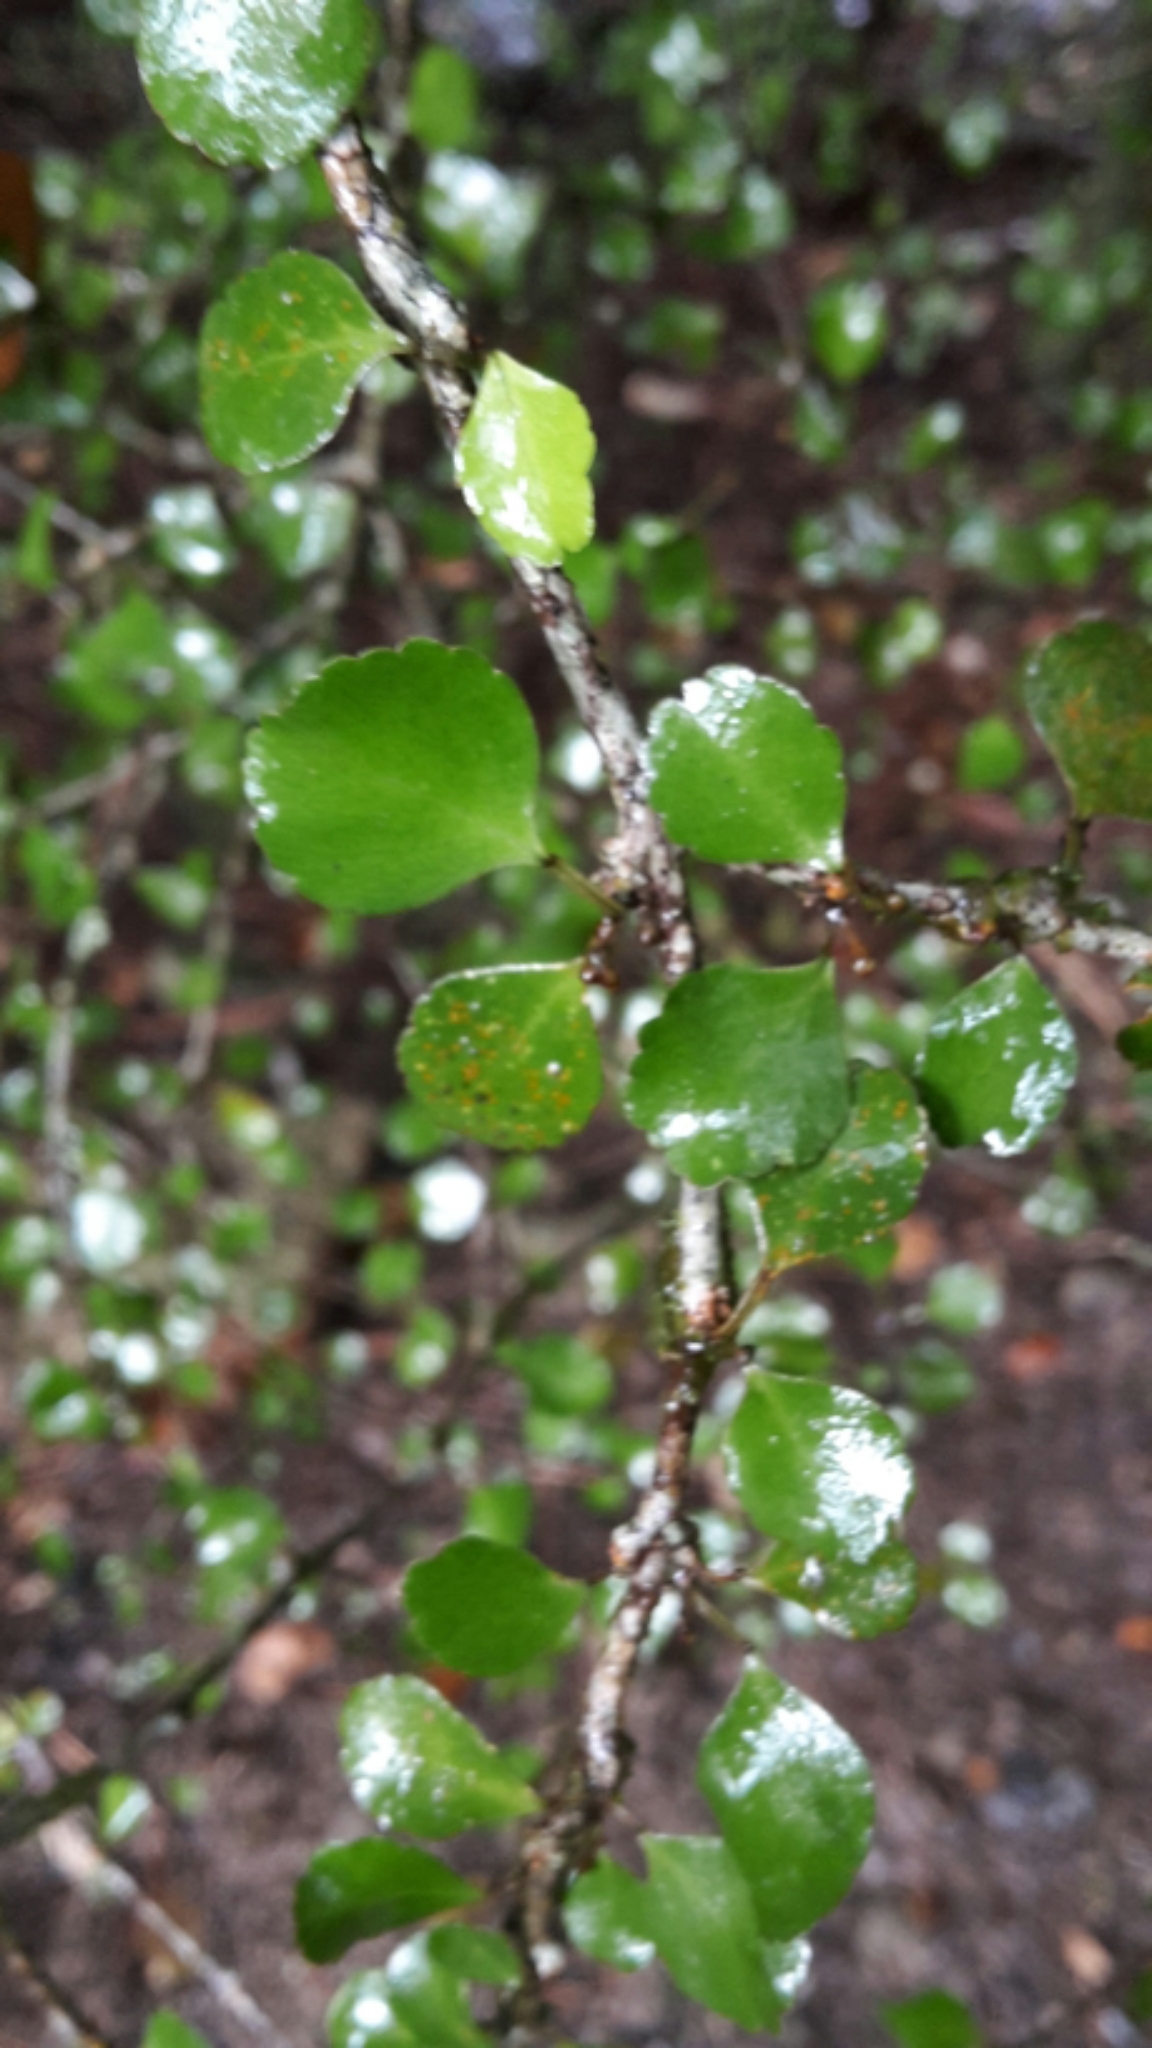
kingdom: Plantae
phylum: Tracheophyta
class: Magnoliopsida
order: Sapindales
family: Rutaceae
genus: Melicope
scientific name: Melicope simplex
